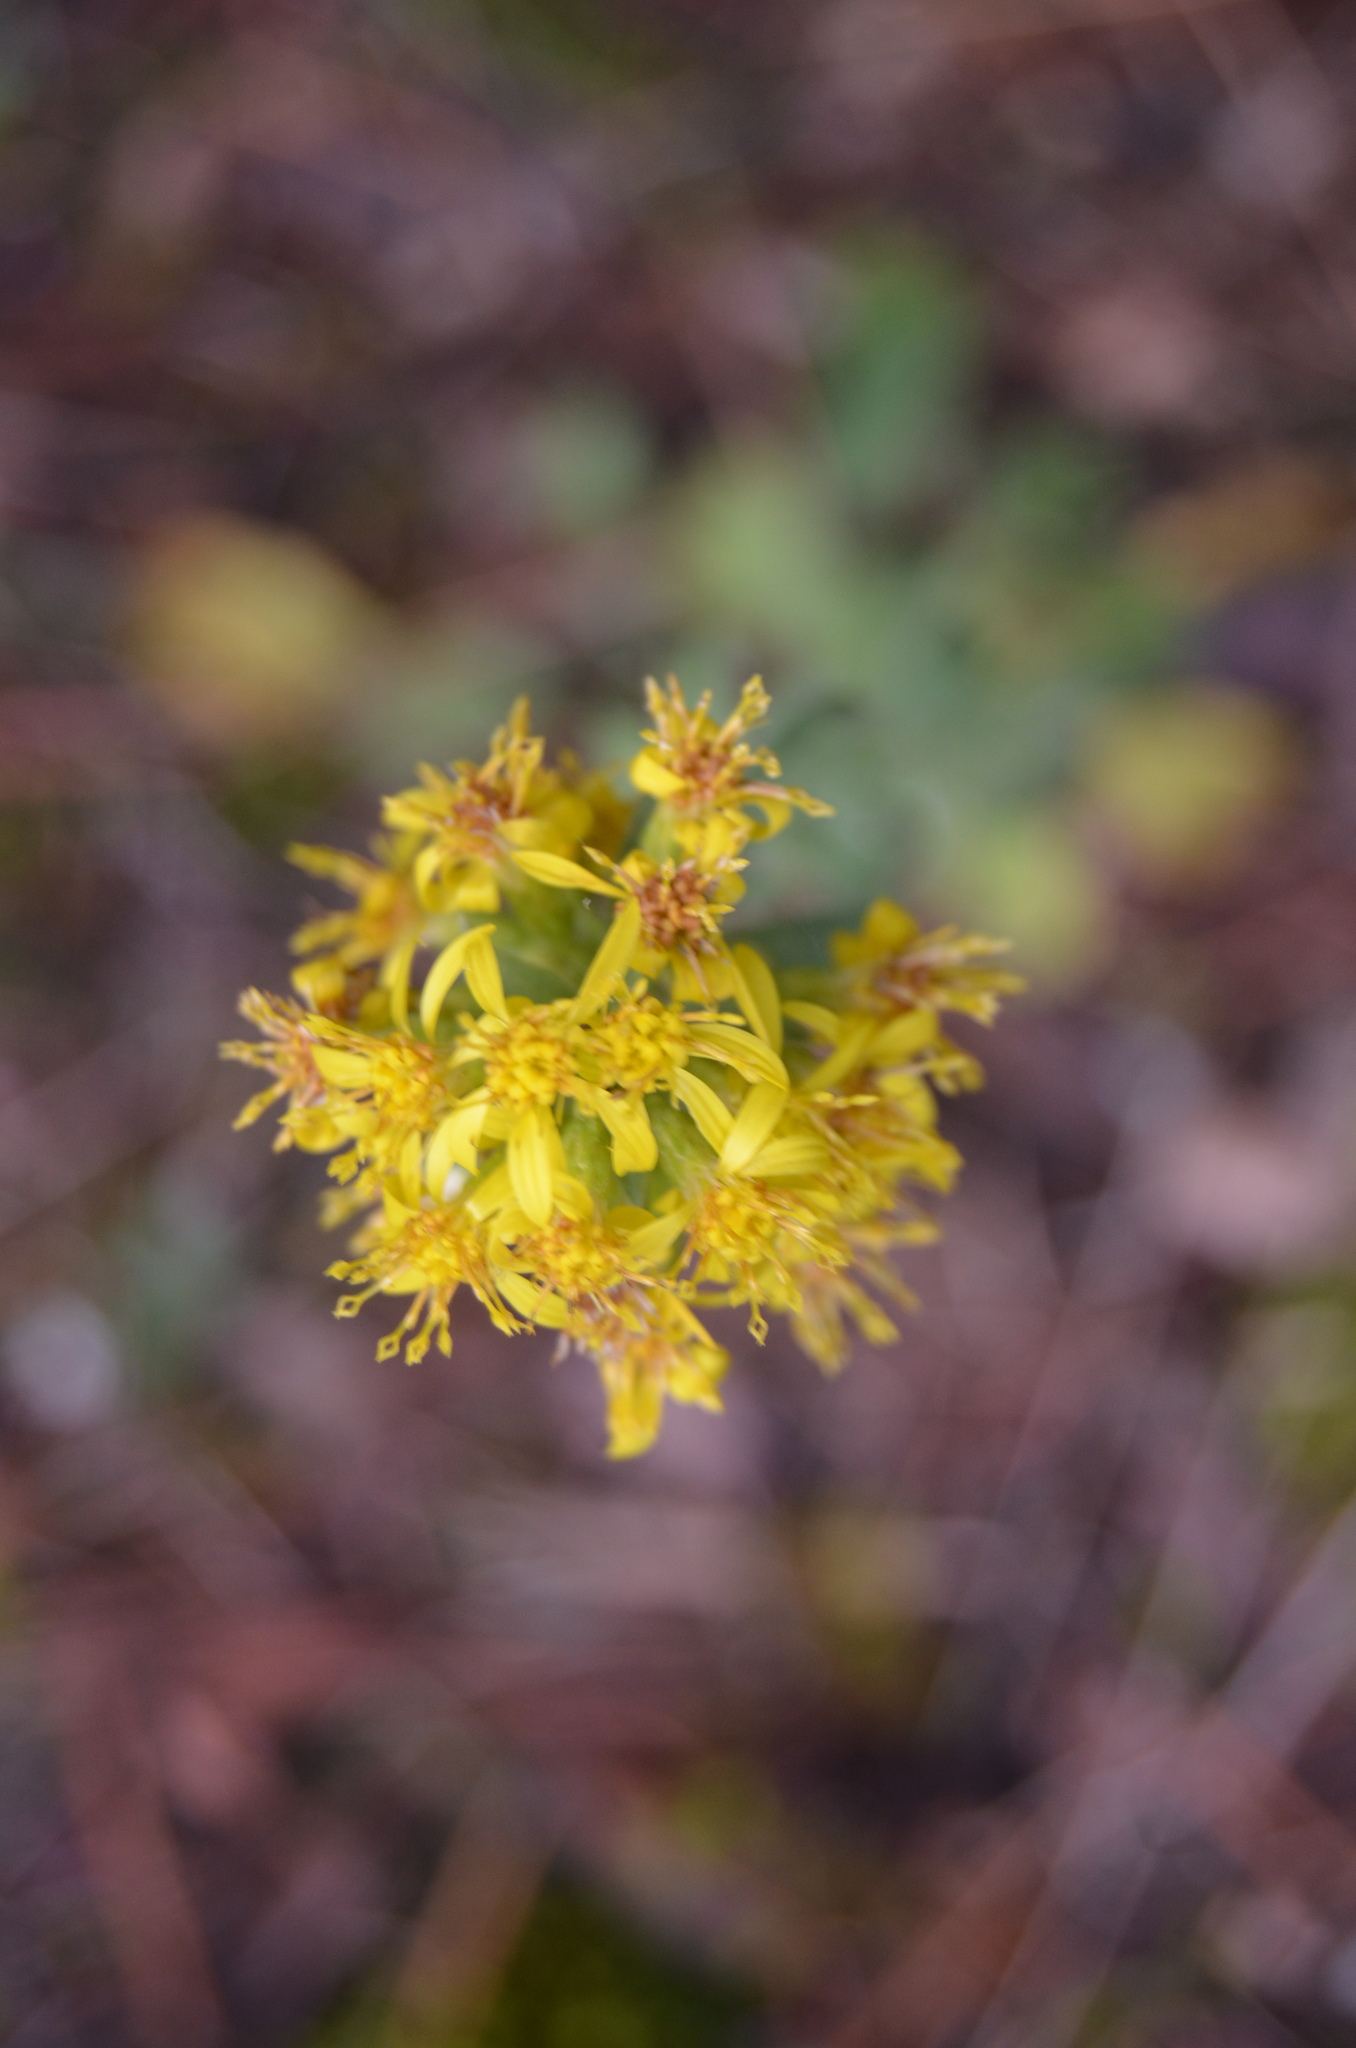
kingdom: Plantae
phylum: Tracheophyta
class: Magnoliopsida
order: Asterales
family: Asteraceae
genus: Solidago
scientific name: Solidago virgaurea
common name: Goldenrod
